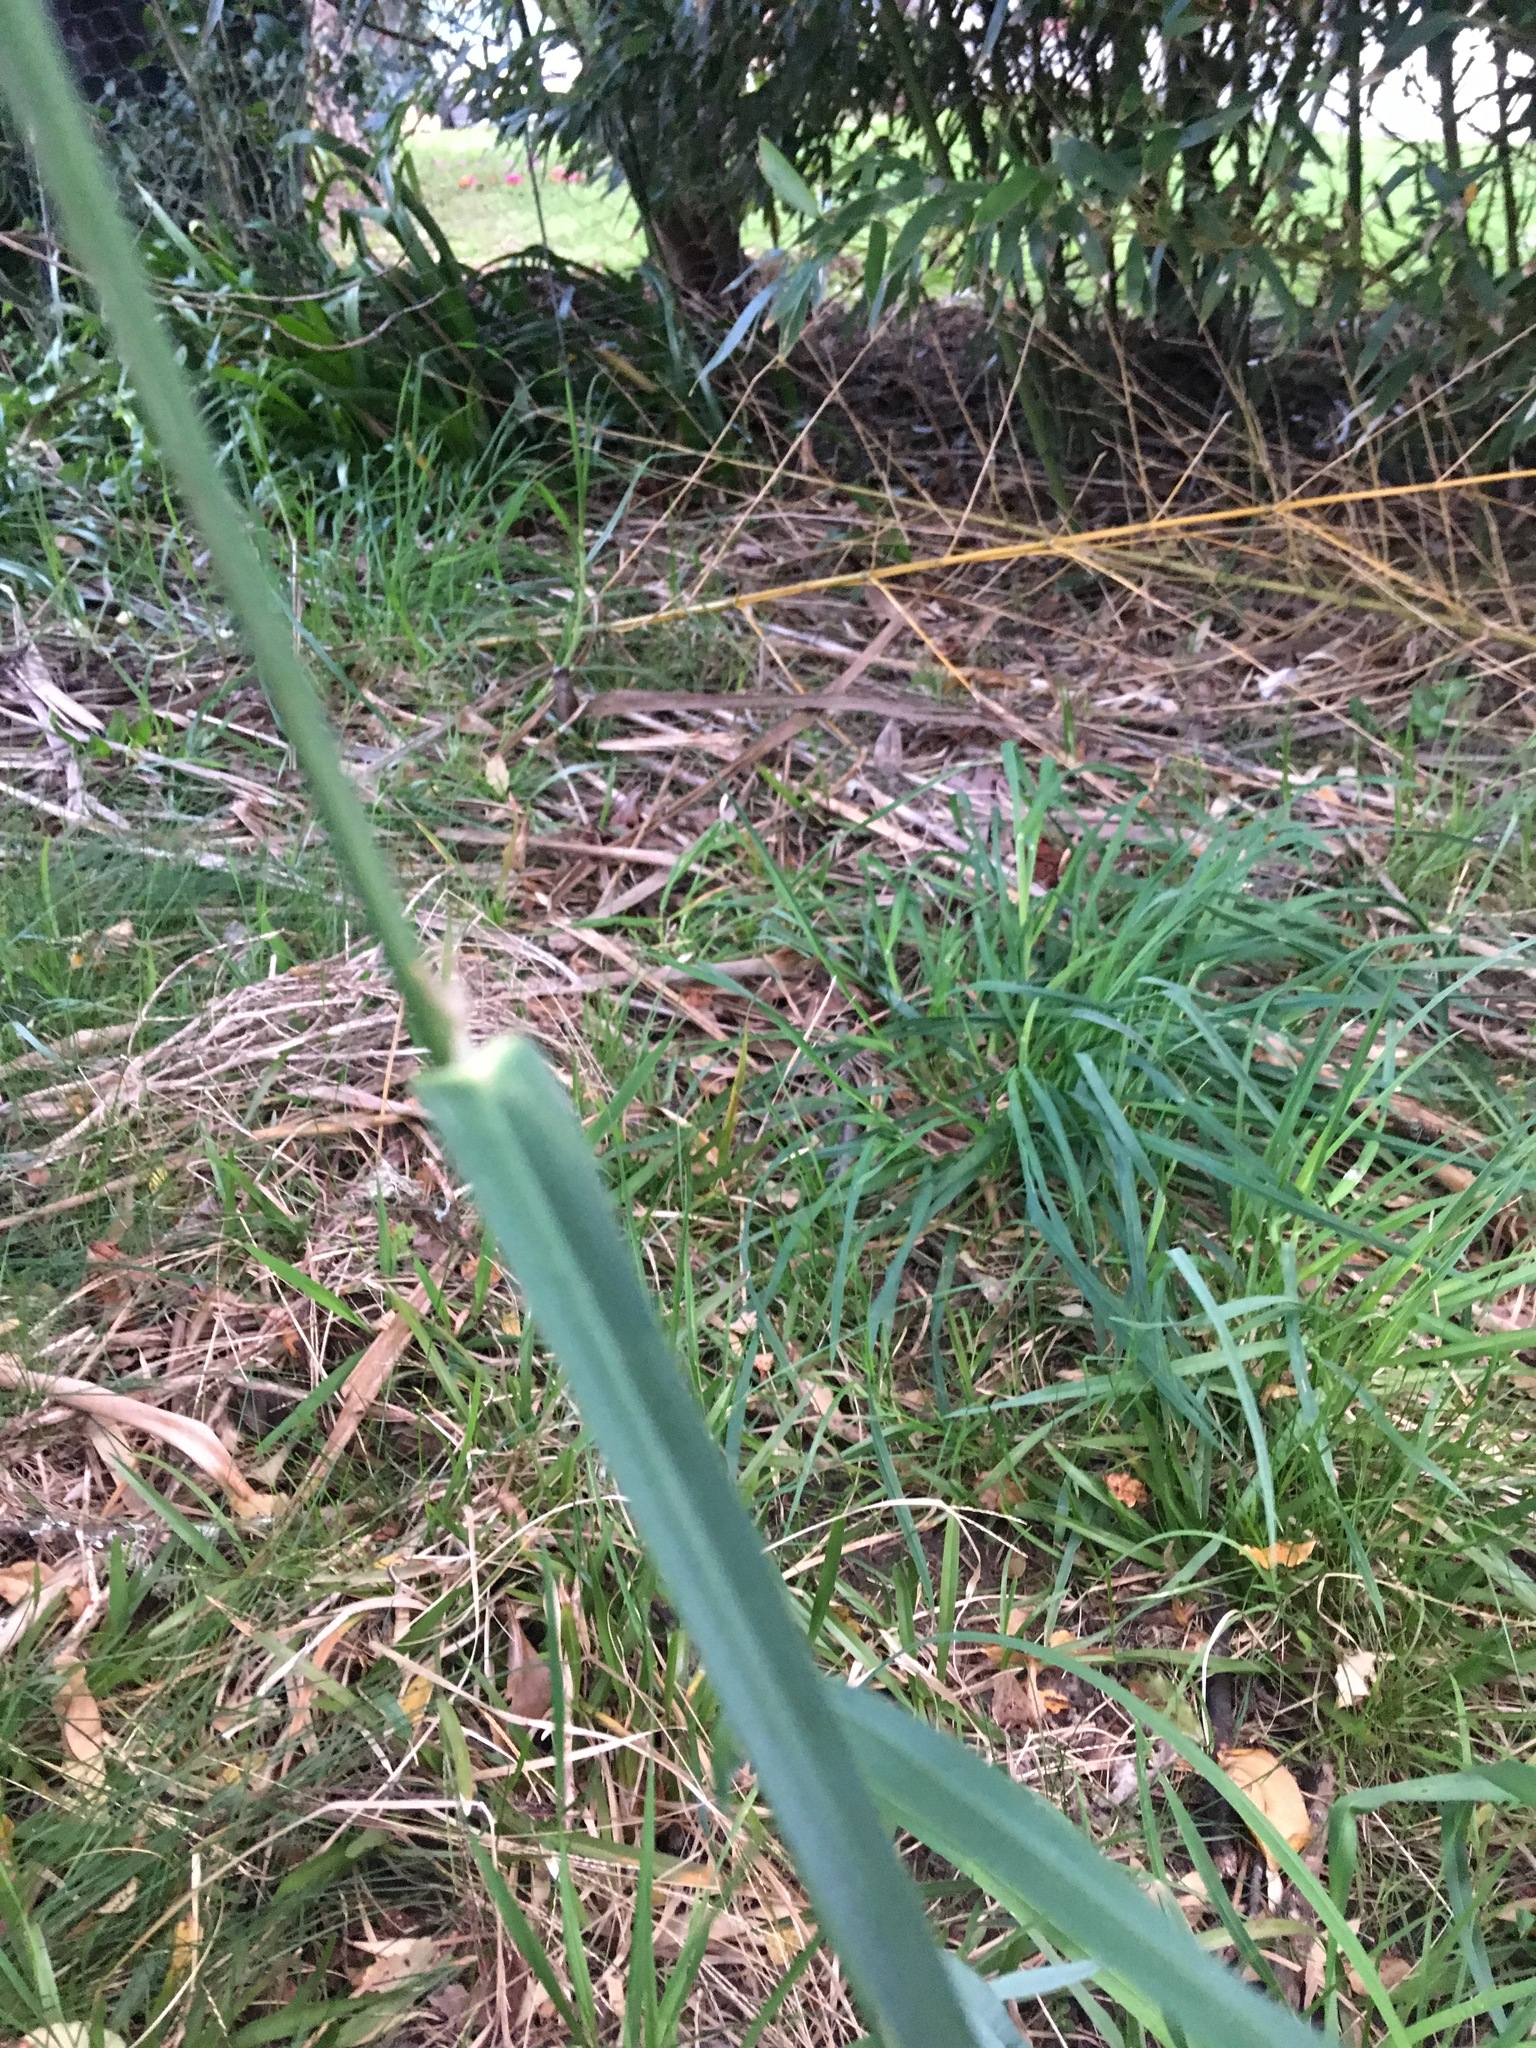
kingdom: Plantae
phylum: Tracheophyta
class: Liliopsida
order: Poales
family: Poaceae
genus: Dactylis
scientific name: Dactylis glomerata
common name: Orchardgrass
